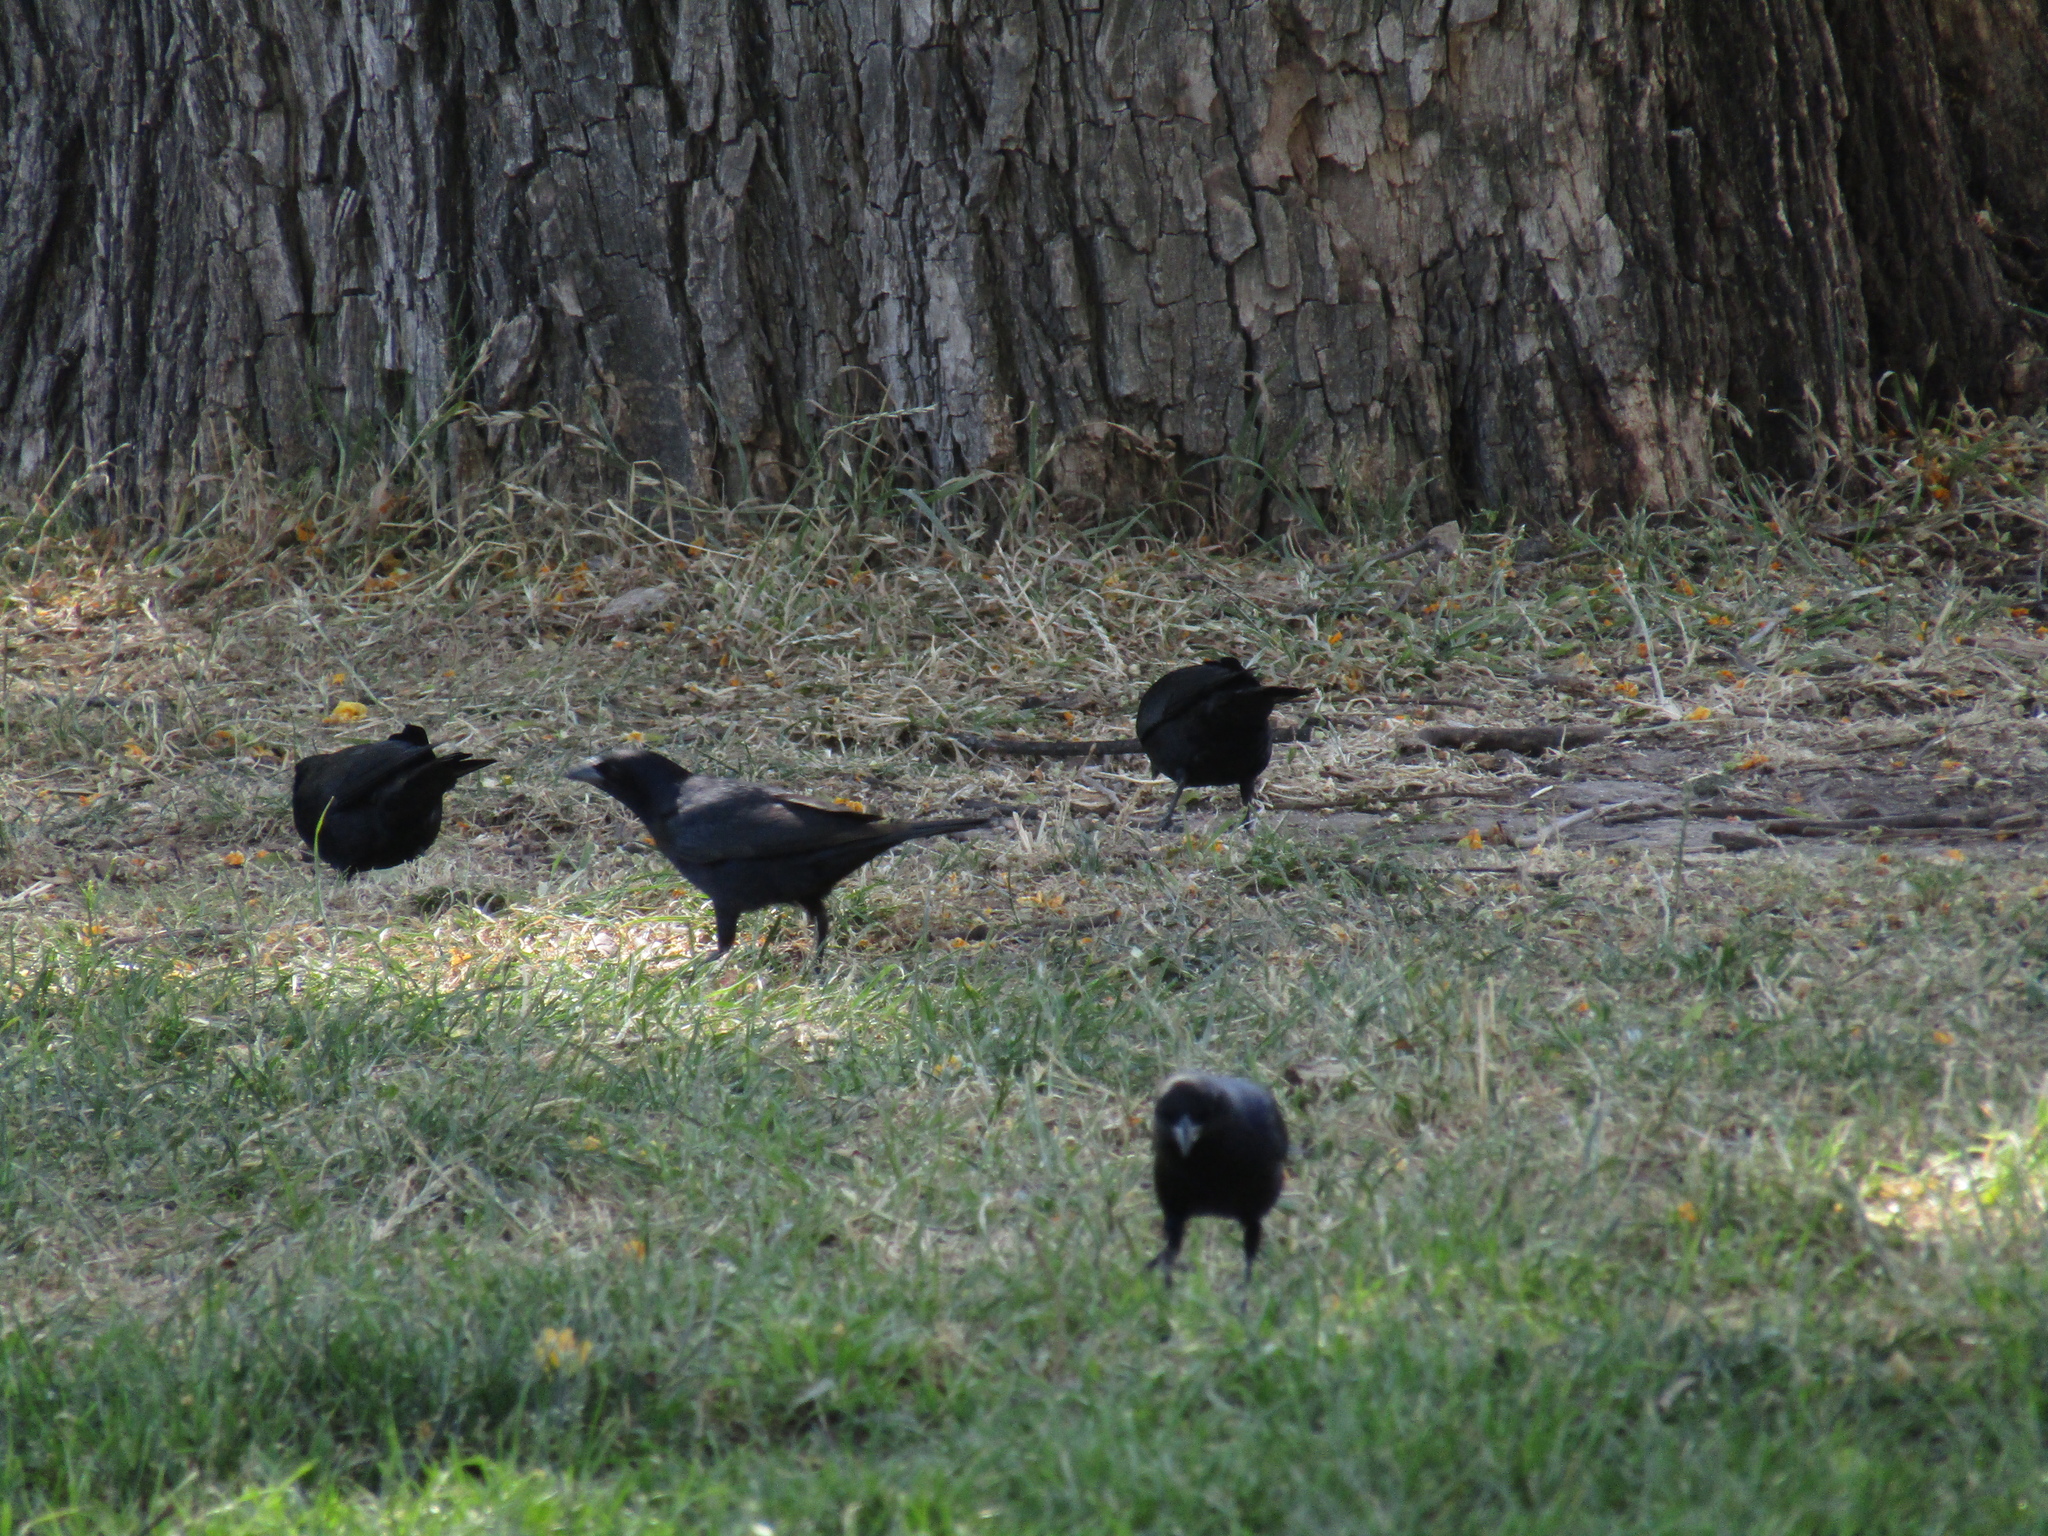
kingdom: Animalia
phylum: Chordata
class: Aves
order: Passeriformes
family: Icteridae
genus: Molothrus
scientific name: Molothrus bonariensis
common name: Shiny cowbird
